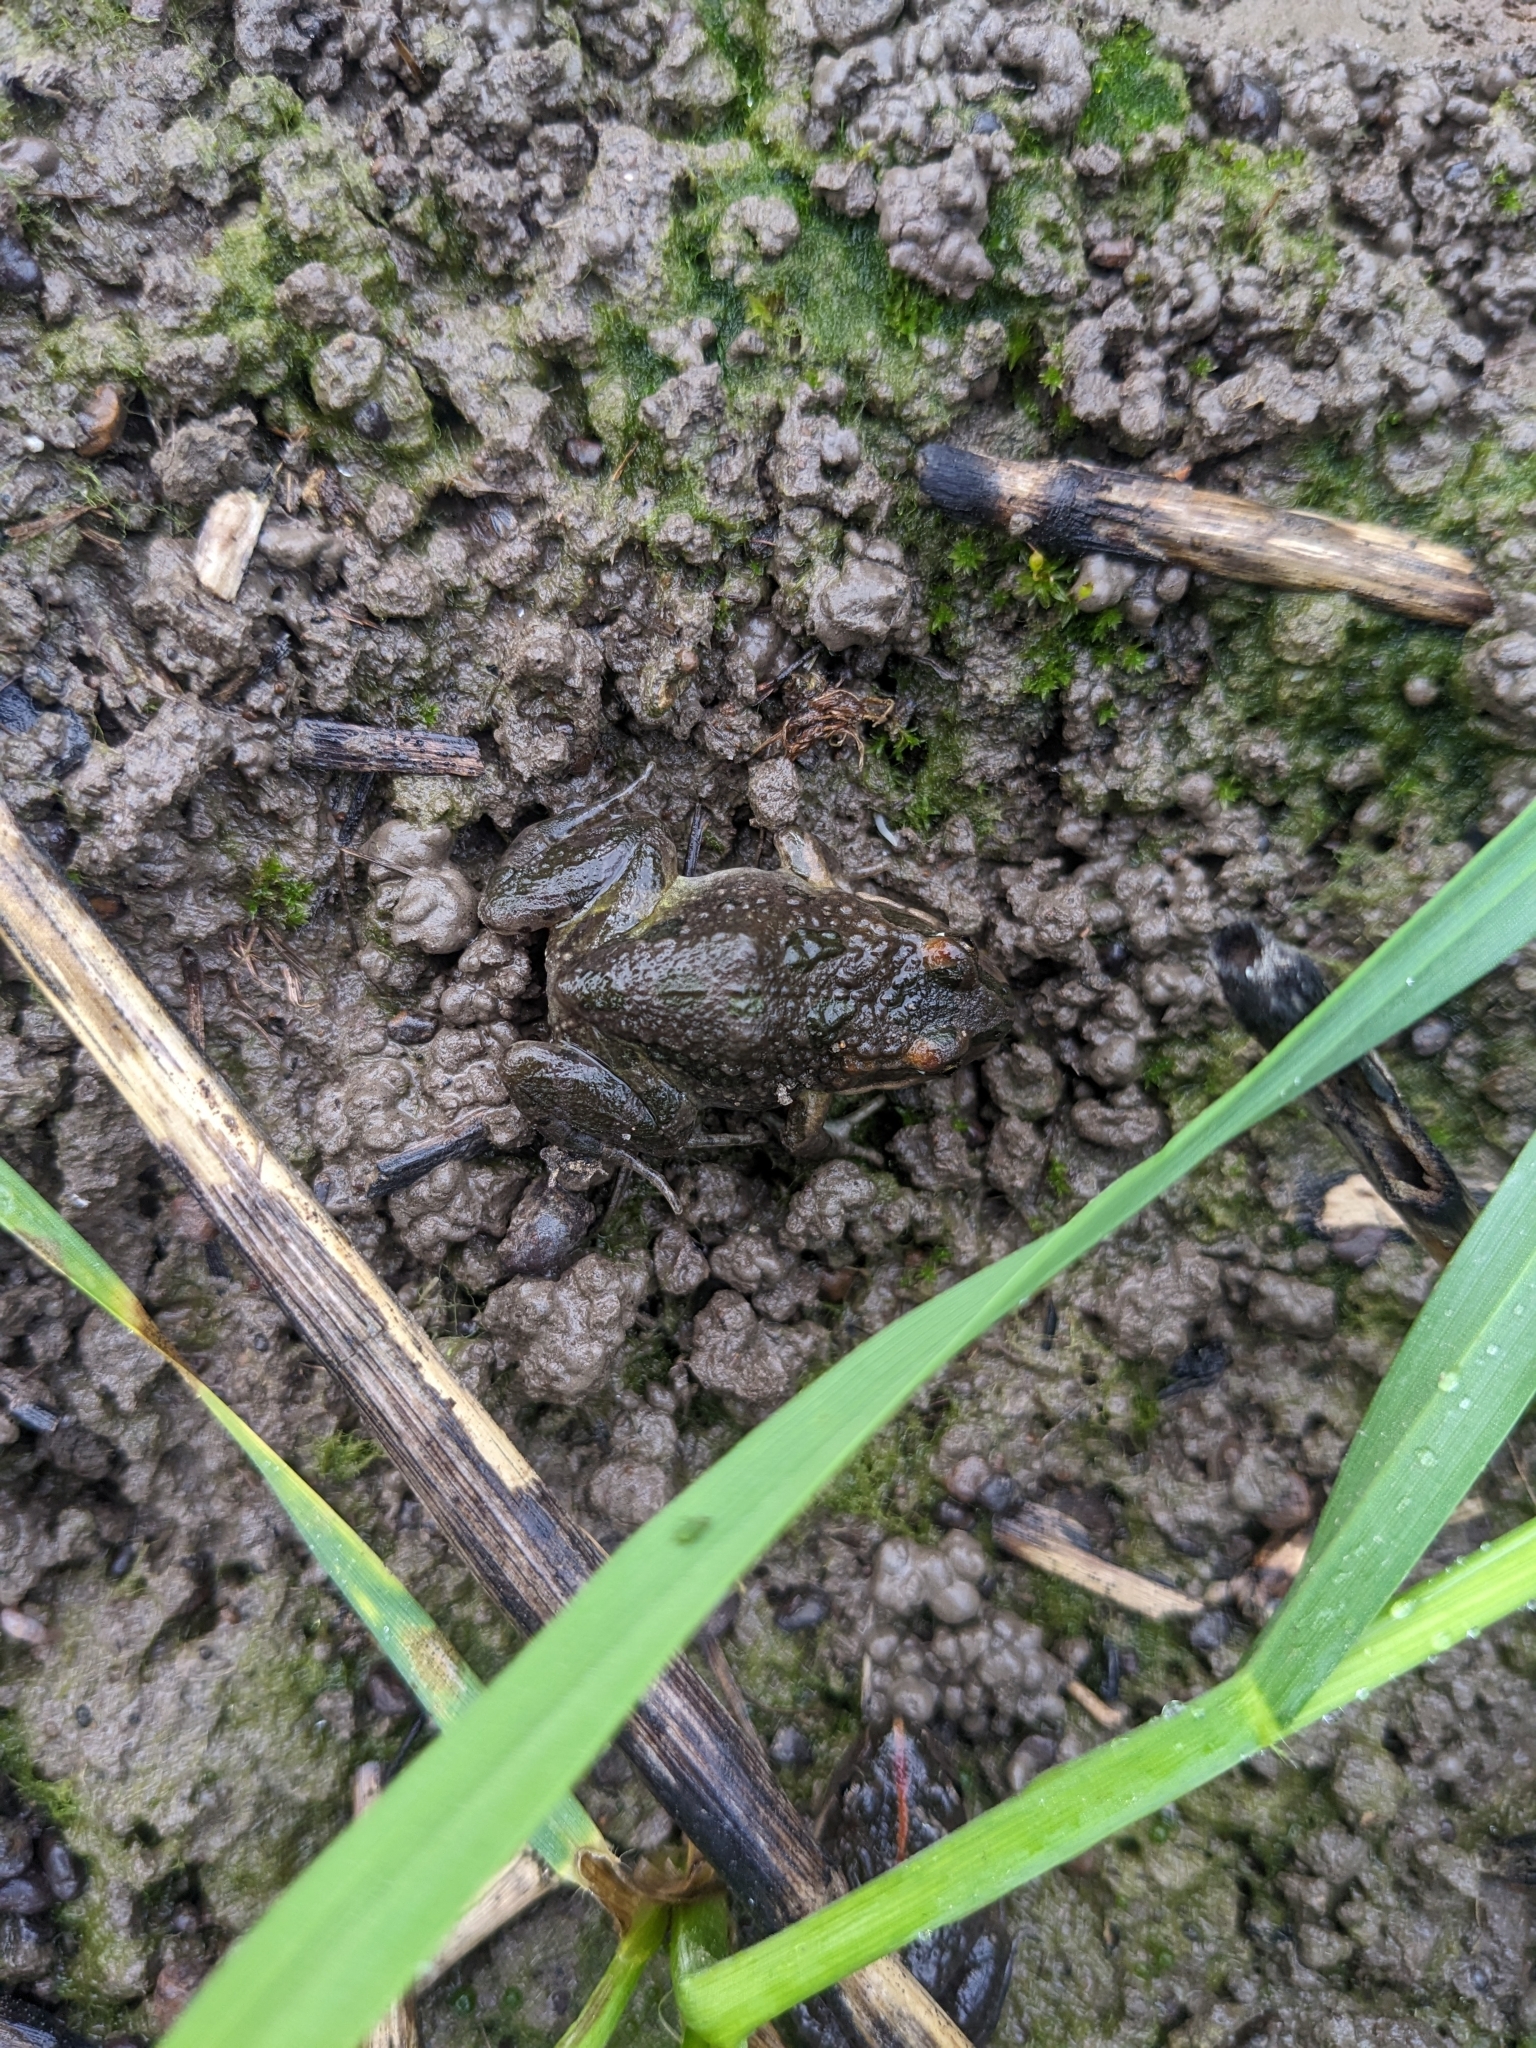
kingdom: Animalia
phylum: Chordata
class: Amphibia
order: Anura
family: Limnodynastidae
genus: Limnodynastes
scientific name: Limnodynastes tasmaniensis
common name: Spotted marsh frog
